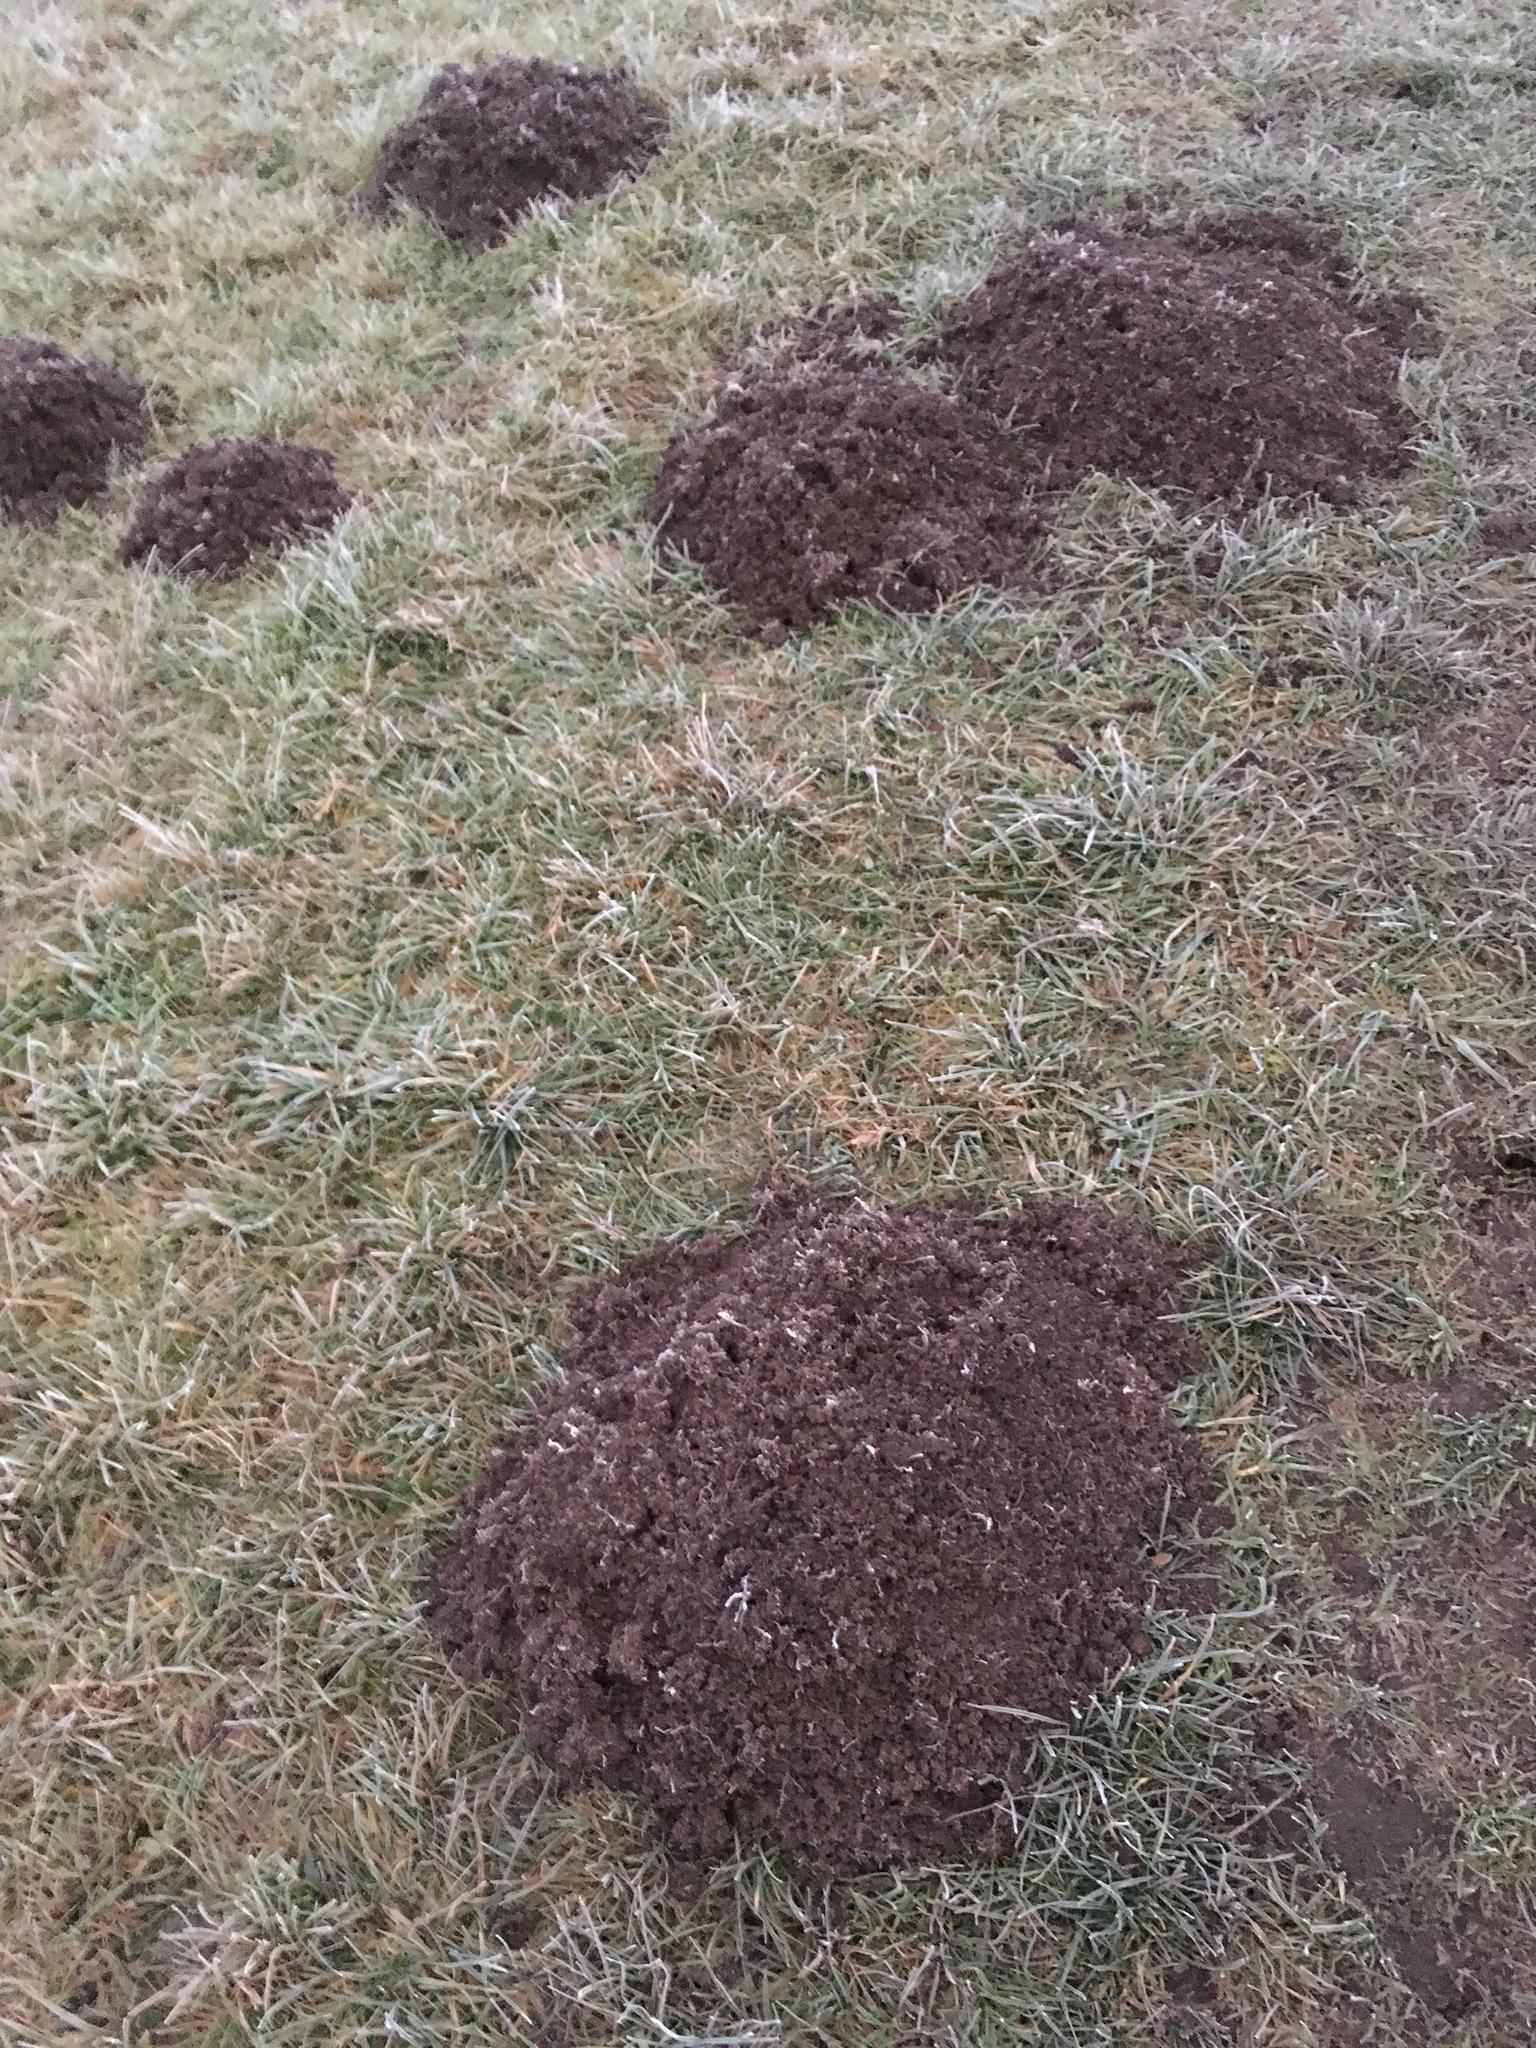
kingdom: Animalia
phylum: Chordata
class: Mammalia
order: Soricomorpha
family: Talpidae
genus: Talpa
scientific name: Talpa europaea
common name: European mole
